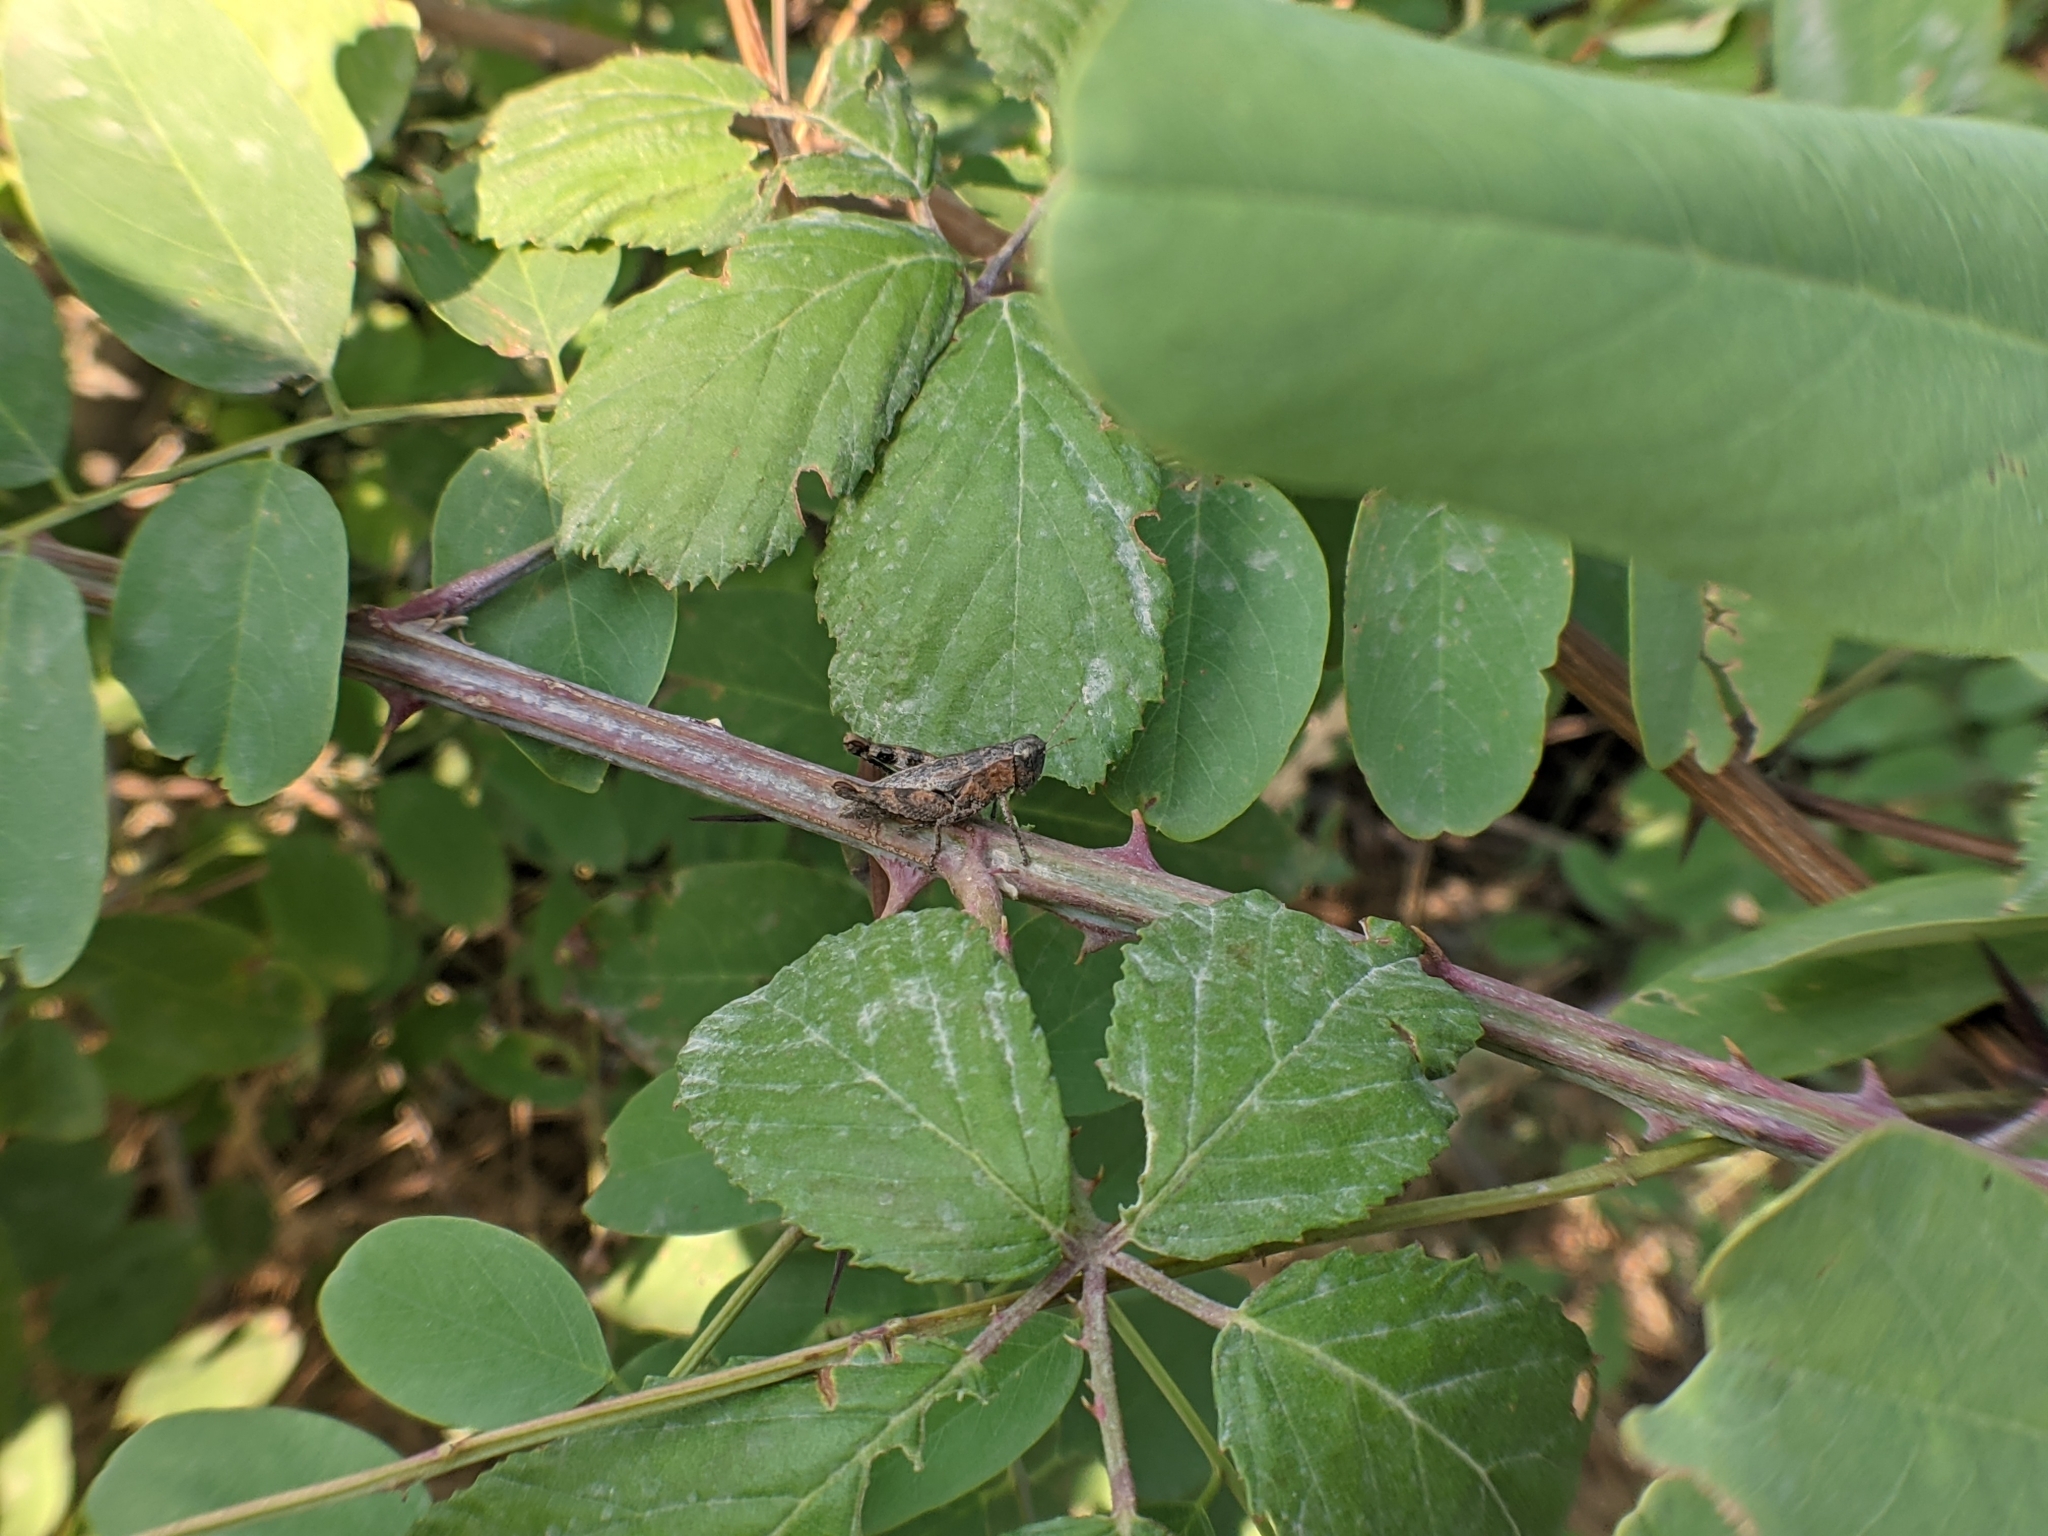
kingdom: Animalia
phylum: Arthropoda
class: Insecta
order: Orthoptera
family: Acrididae
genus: Pezotettix
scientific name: Pezotettix giornae
